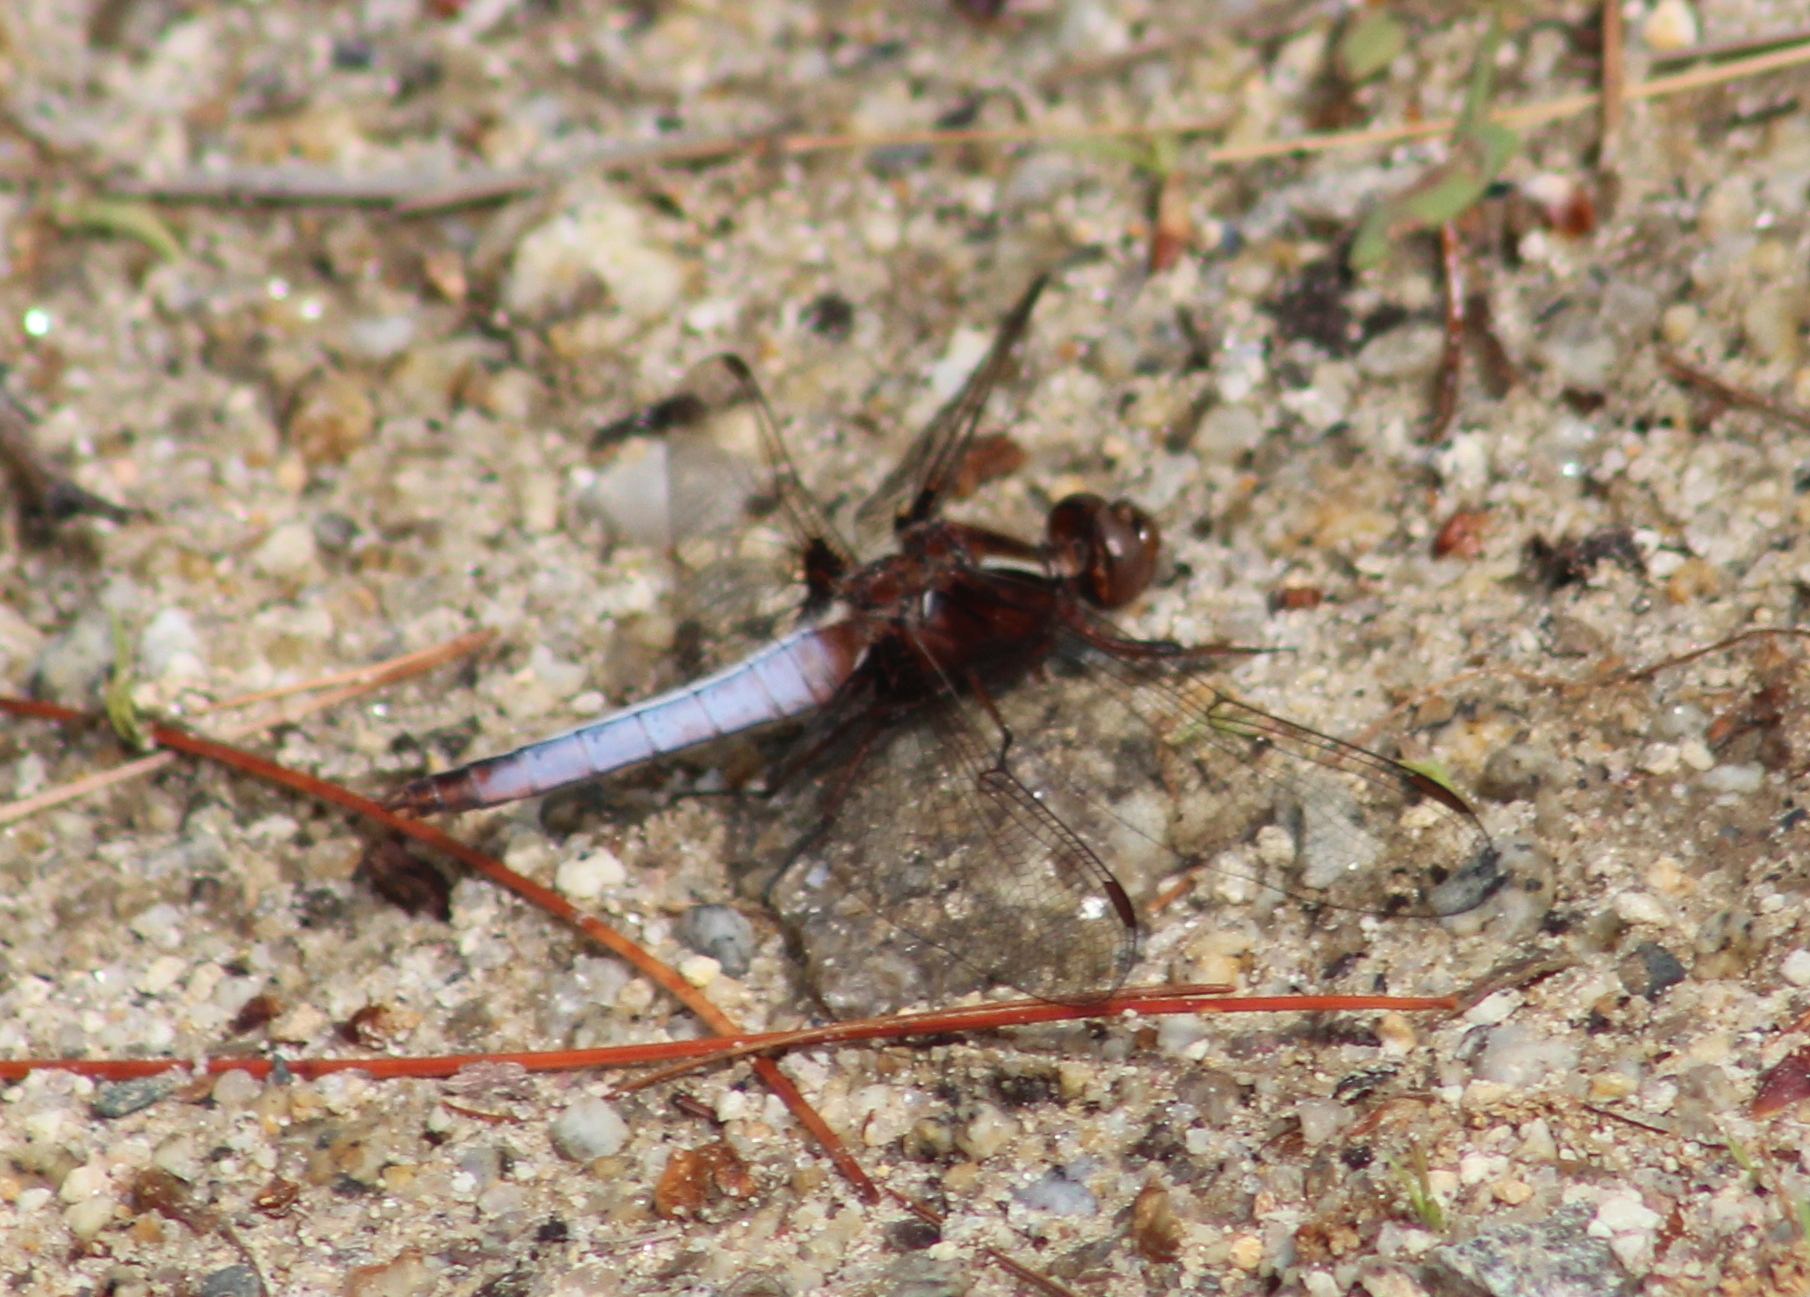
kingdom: Animalia
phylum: Arthropoda
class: Insecta
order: Odonata
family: Libellulidae
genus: Ladona
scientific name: Ladona exusta
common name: Libellule embrasée
